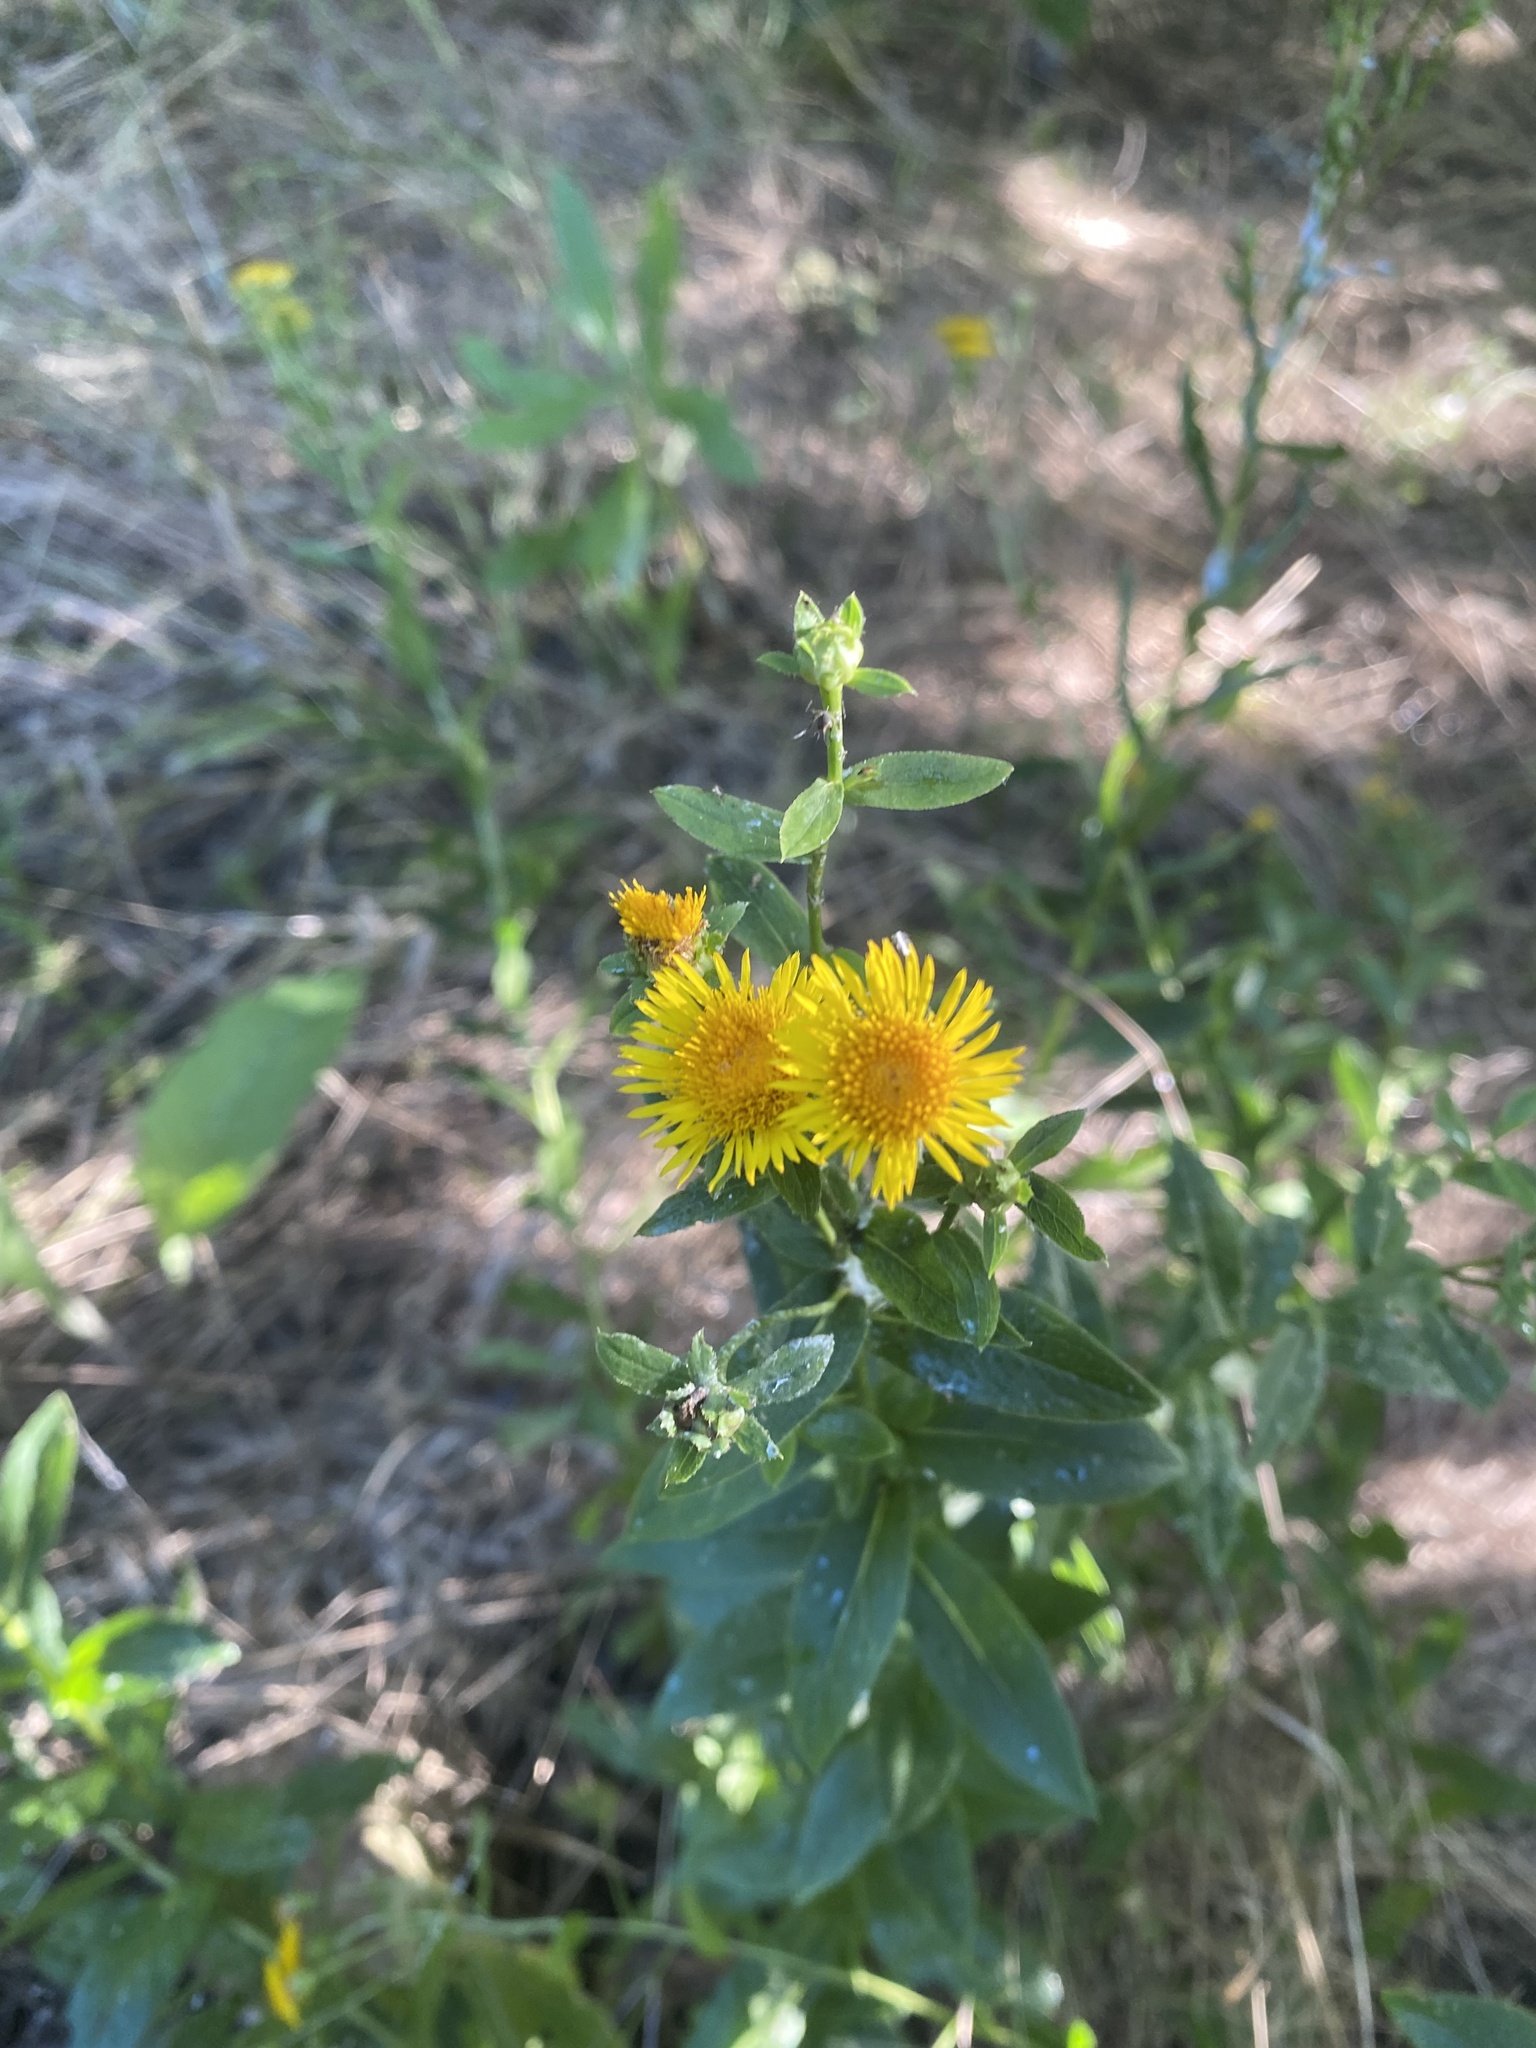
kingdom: Plantae
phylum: Tracheophyta
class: Magnoliopsida
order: Asterales
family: Asteraceae
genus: Pentanema
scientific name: Pentanema asperum
